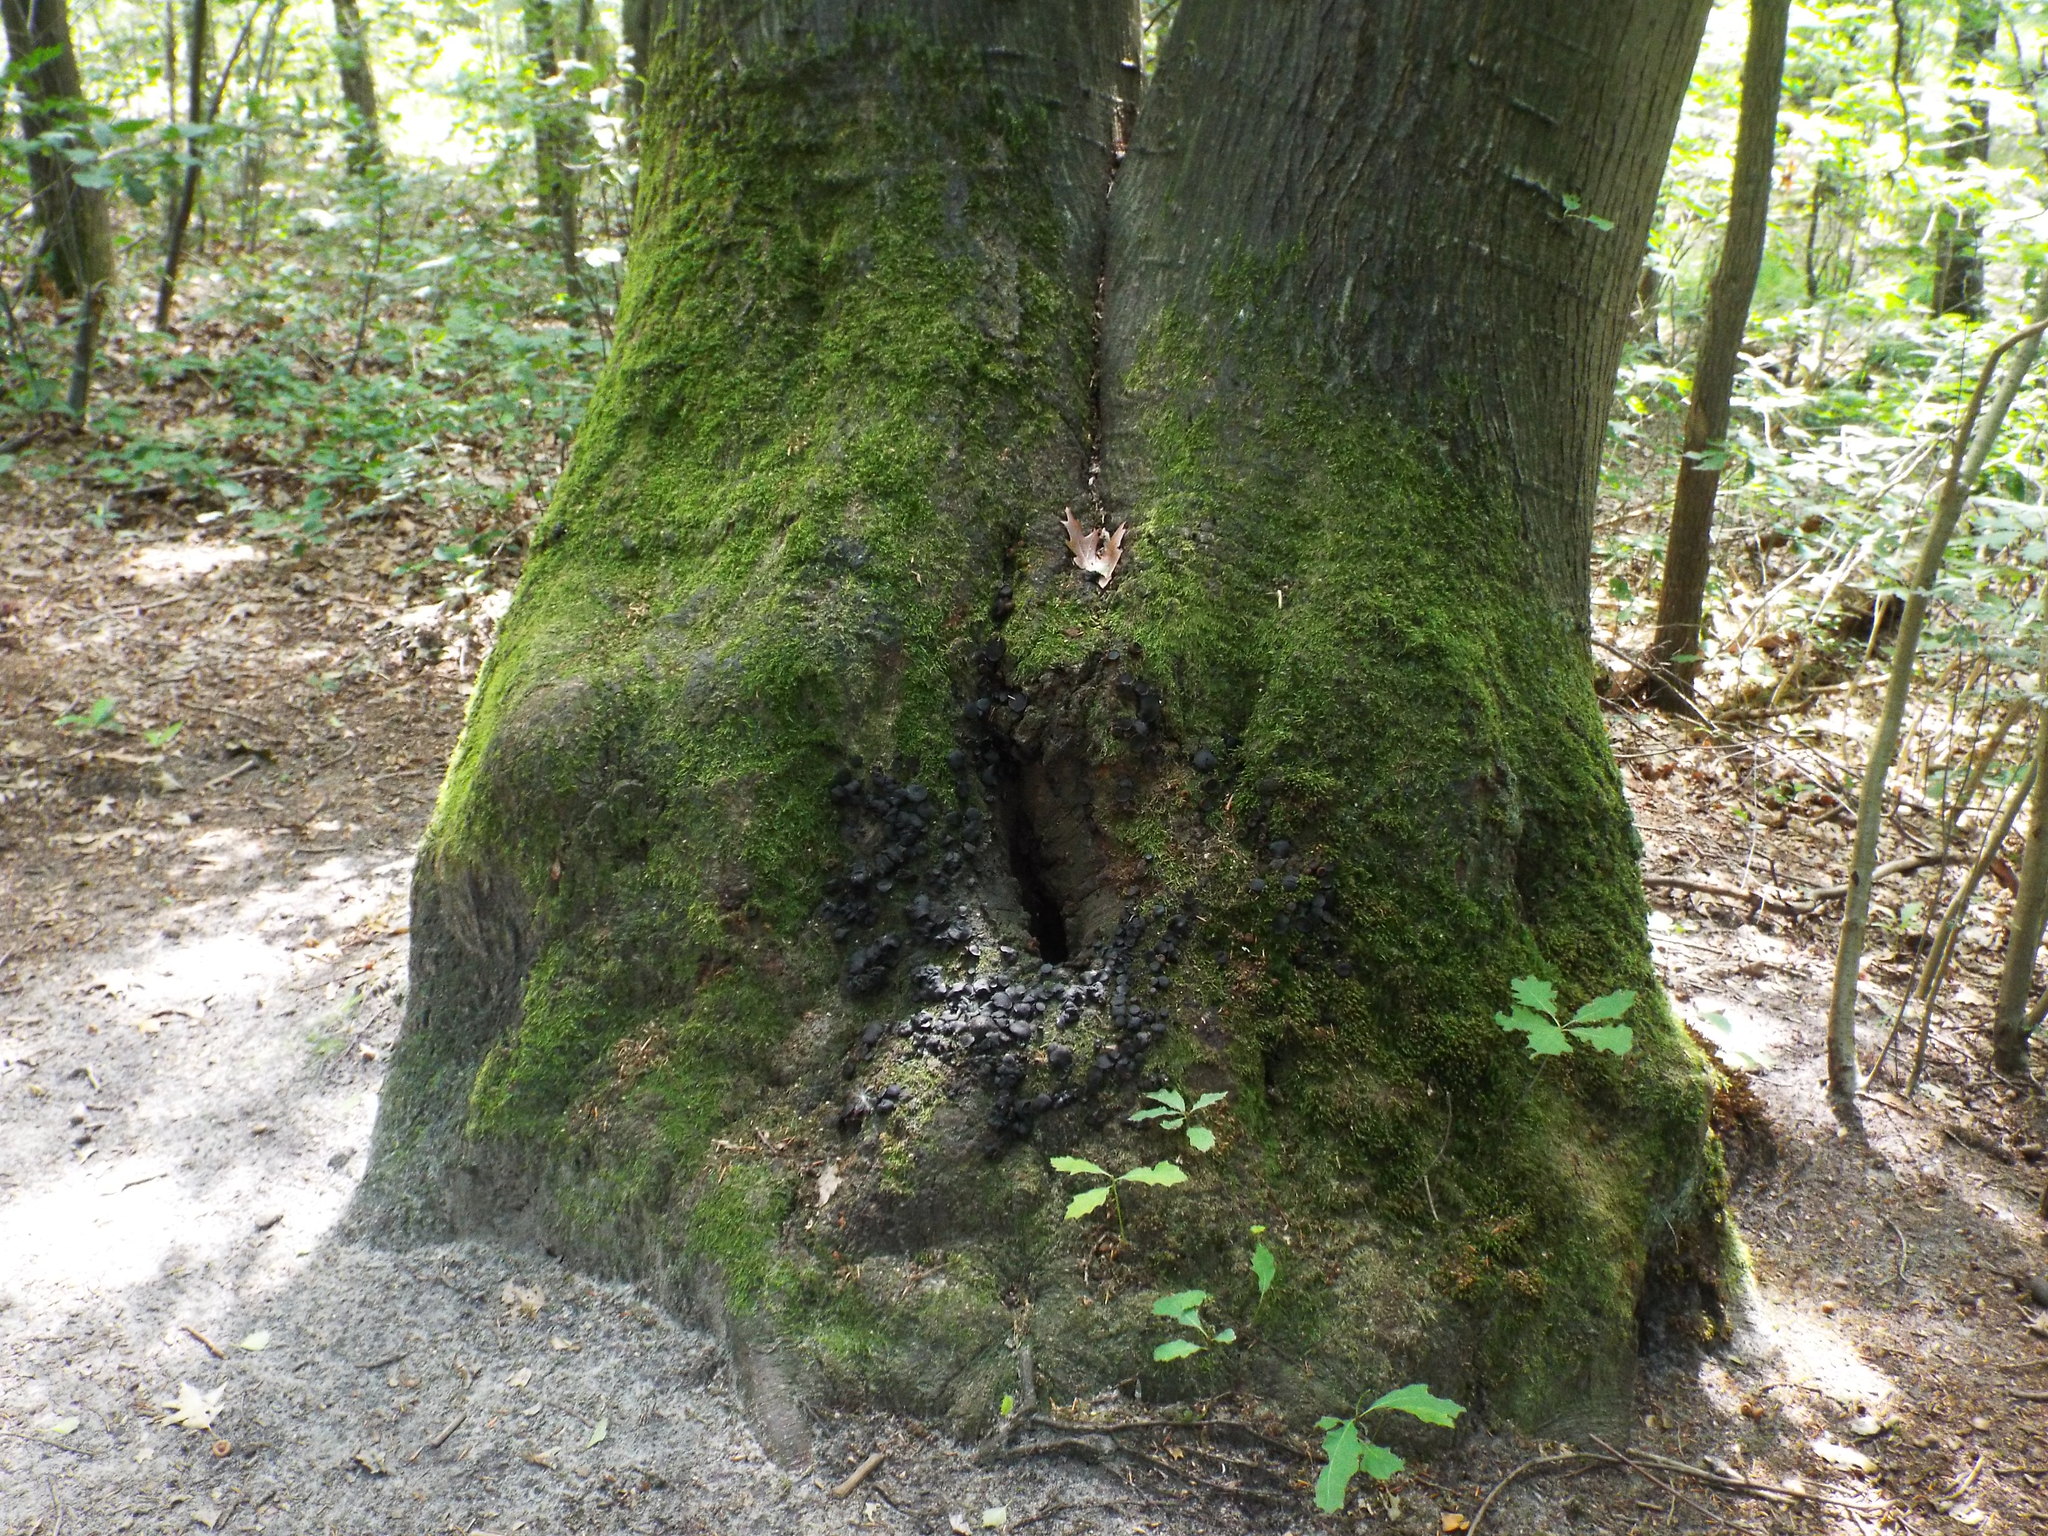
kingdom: Fungi
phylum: Ascomycota
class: Leotiomycetes
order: Phacidiales
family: Phacidiaceae
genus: Bulgaria
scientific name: Bulgaria inquinans
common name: Black bulgar
